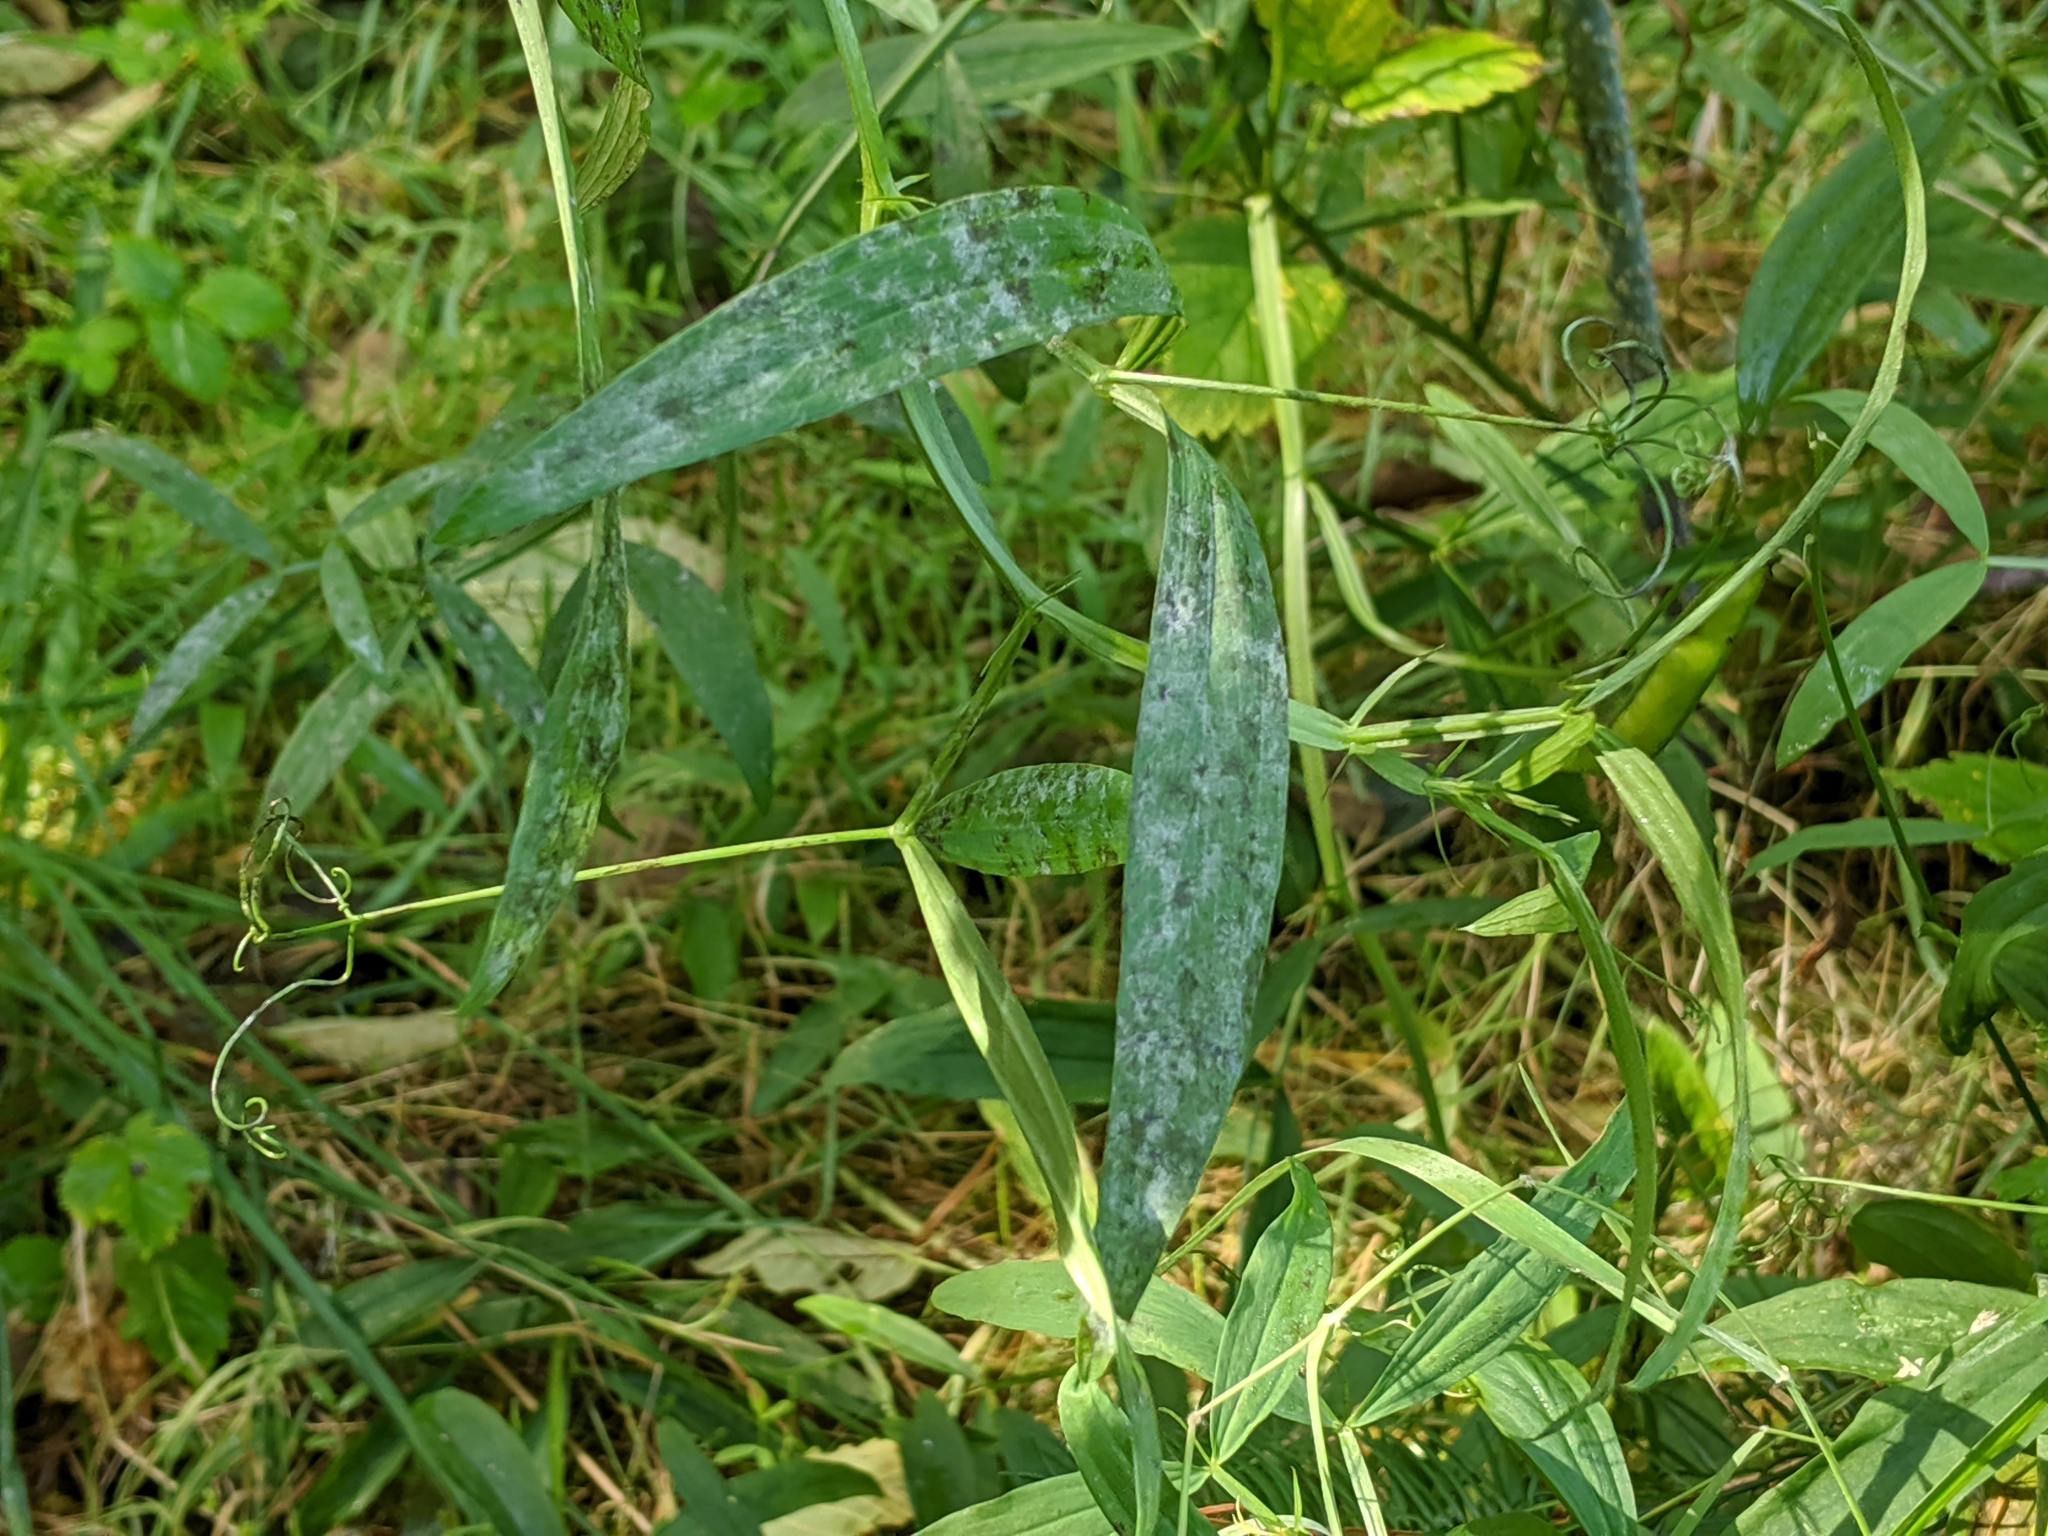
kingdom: Plantae
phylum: Tracheophyta
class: Magnoliopsida
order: Fabales
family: Fabaceae
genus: Lathyrus
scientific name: Lathyrus sylvestris
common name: Flat pea
